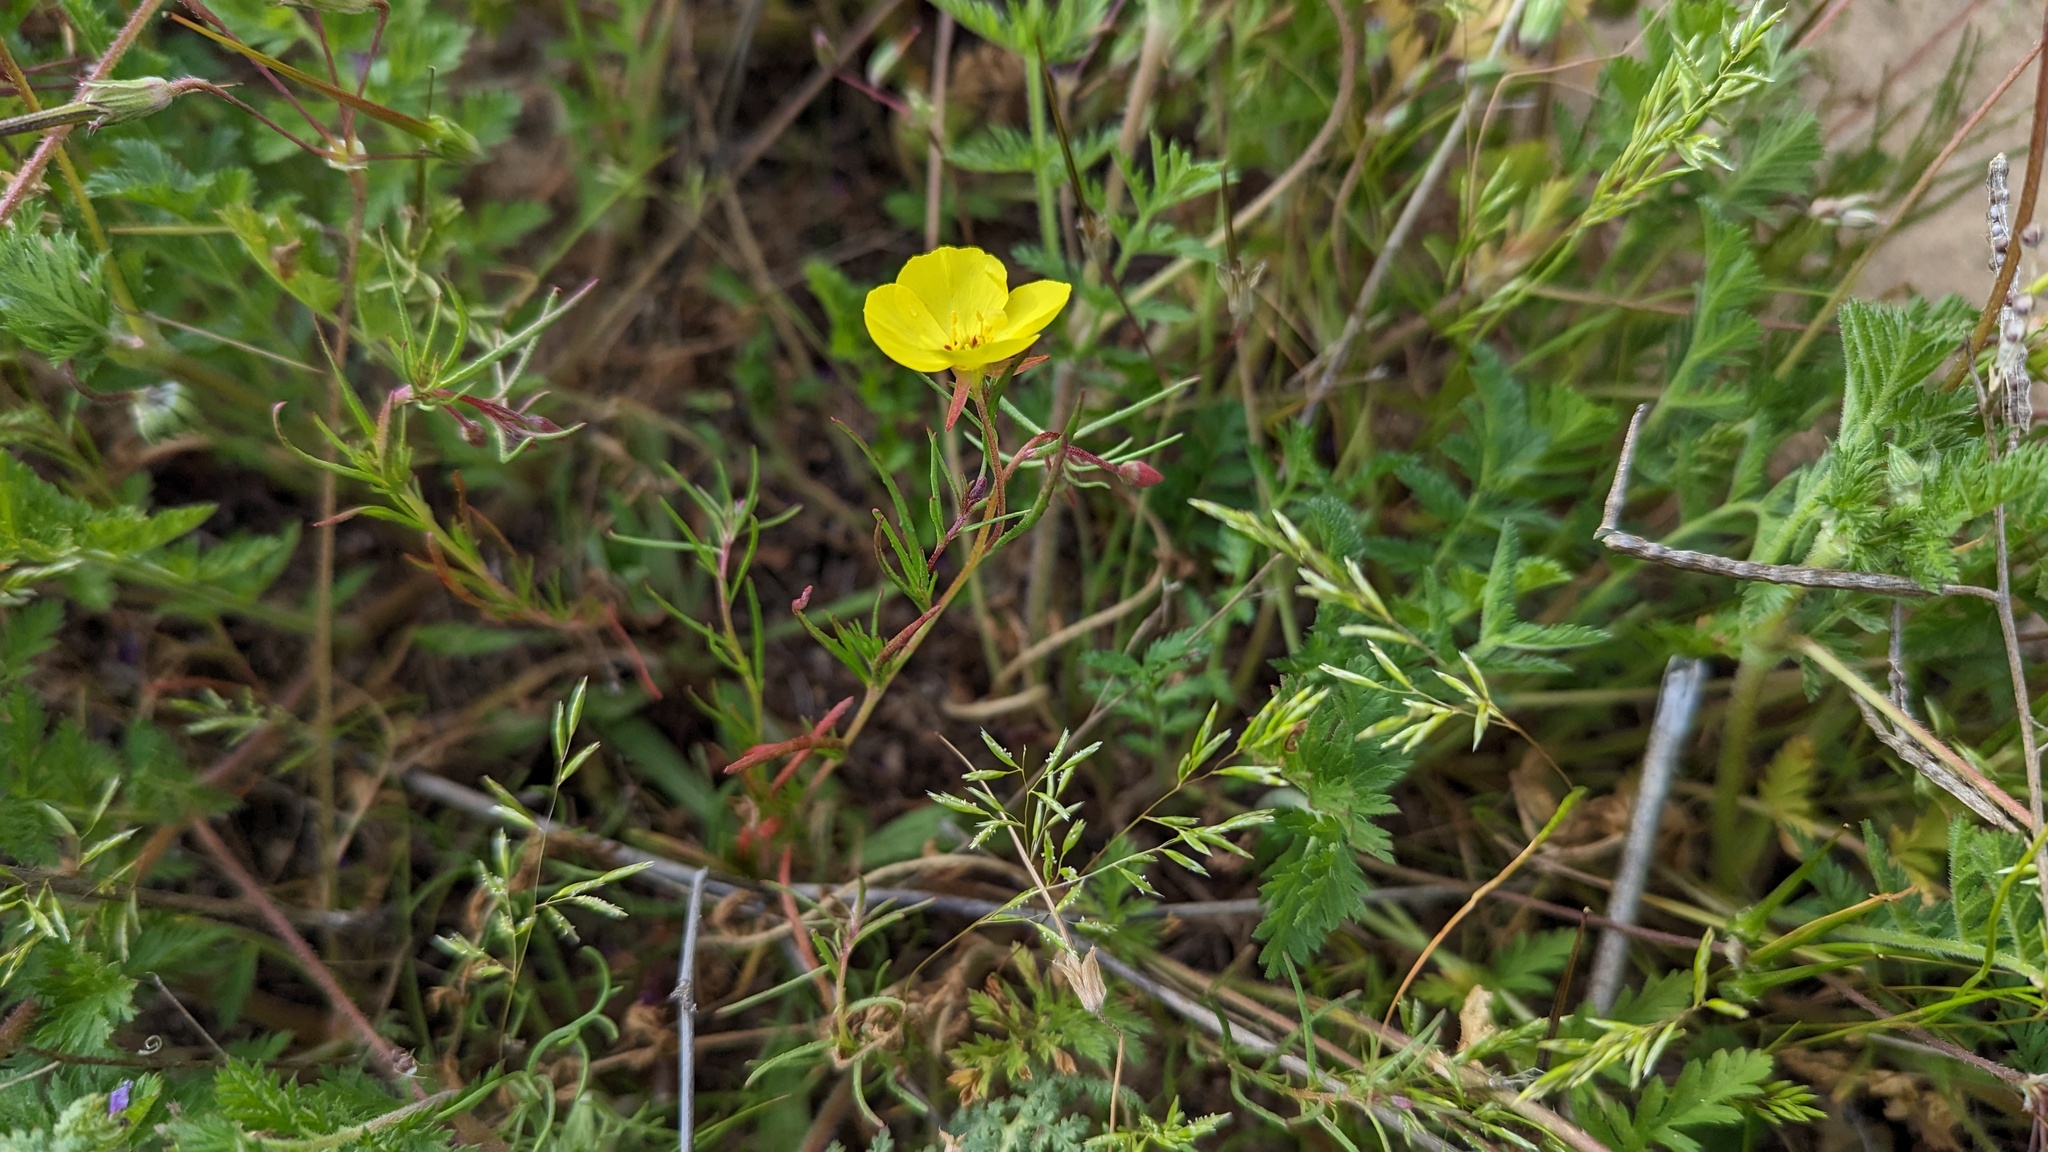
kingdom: Plantae
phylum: Tracheophyta
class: Magnoliopsida
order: Myrtales
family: Onagraceae
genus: Camissonia
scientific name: Camissonia campestris
